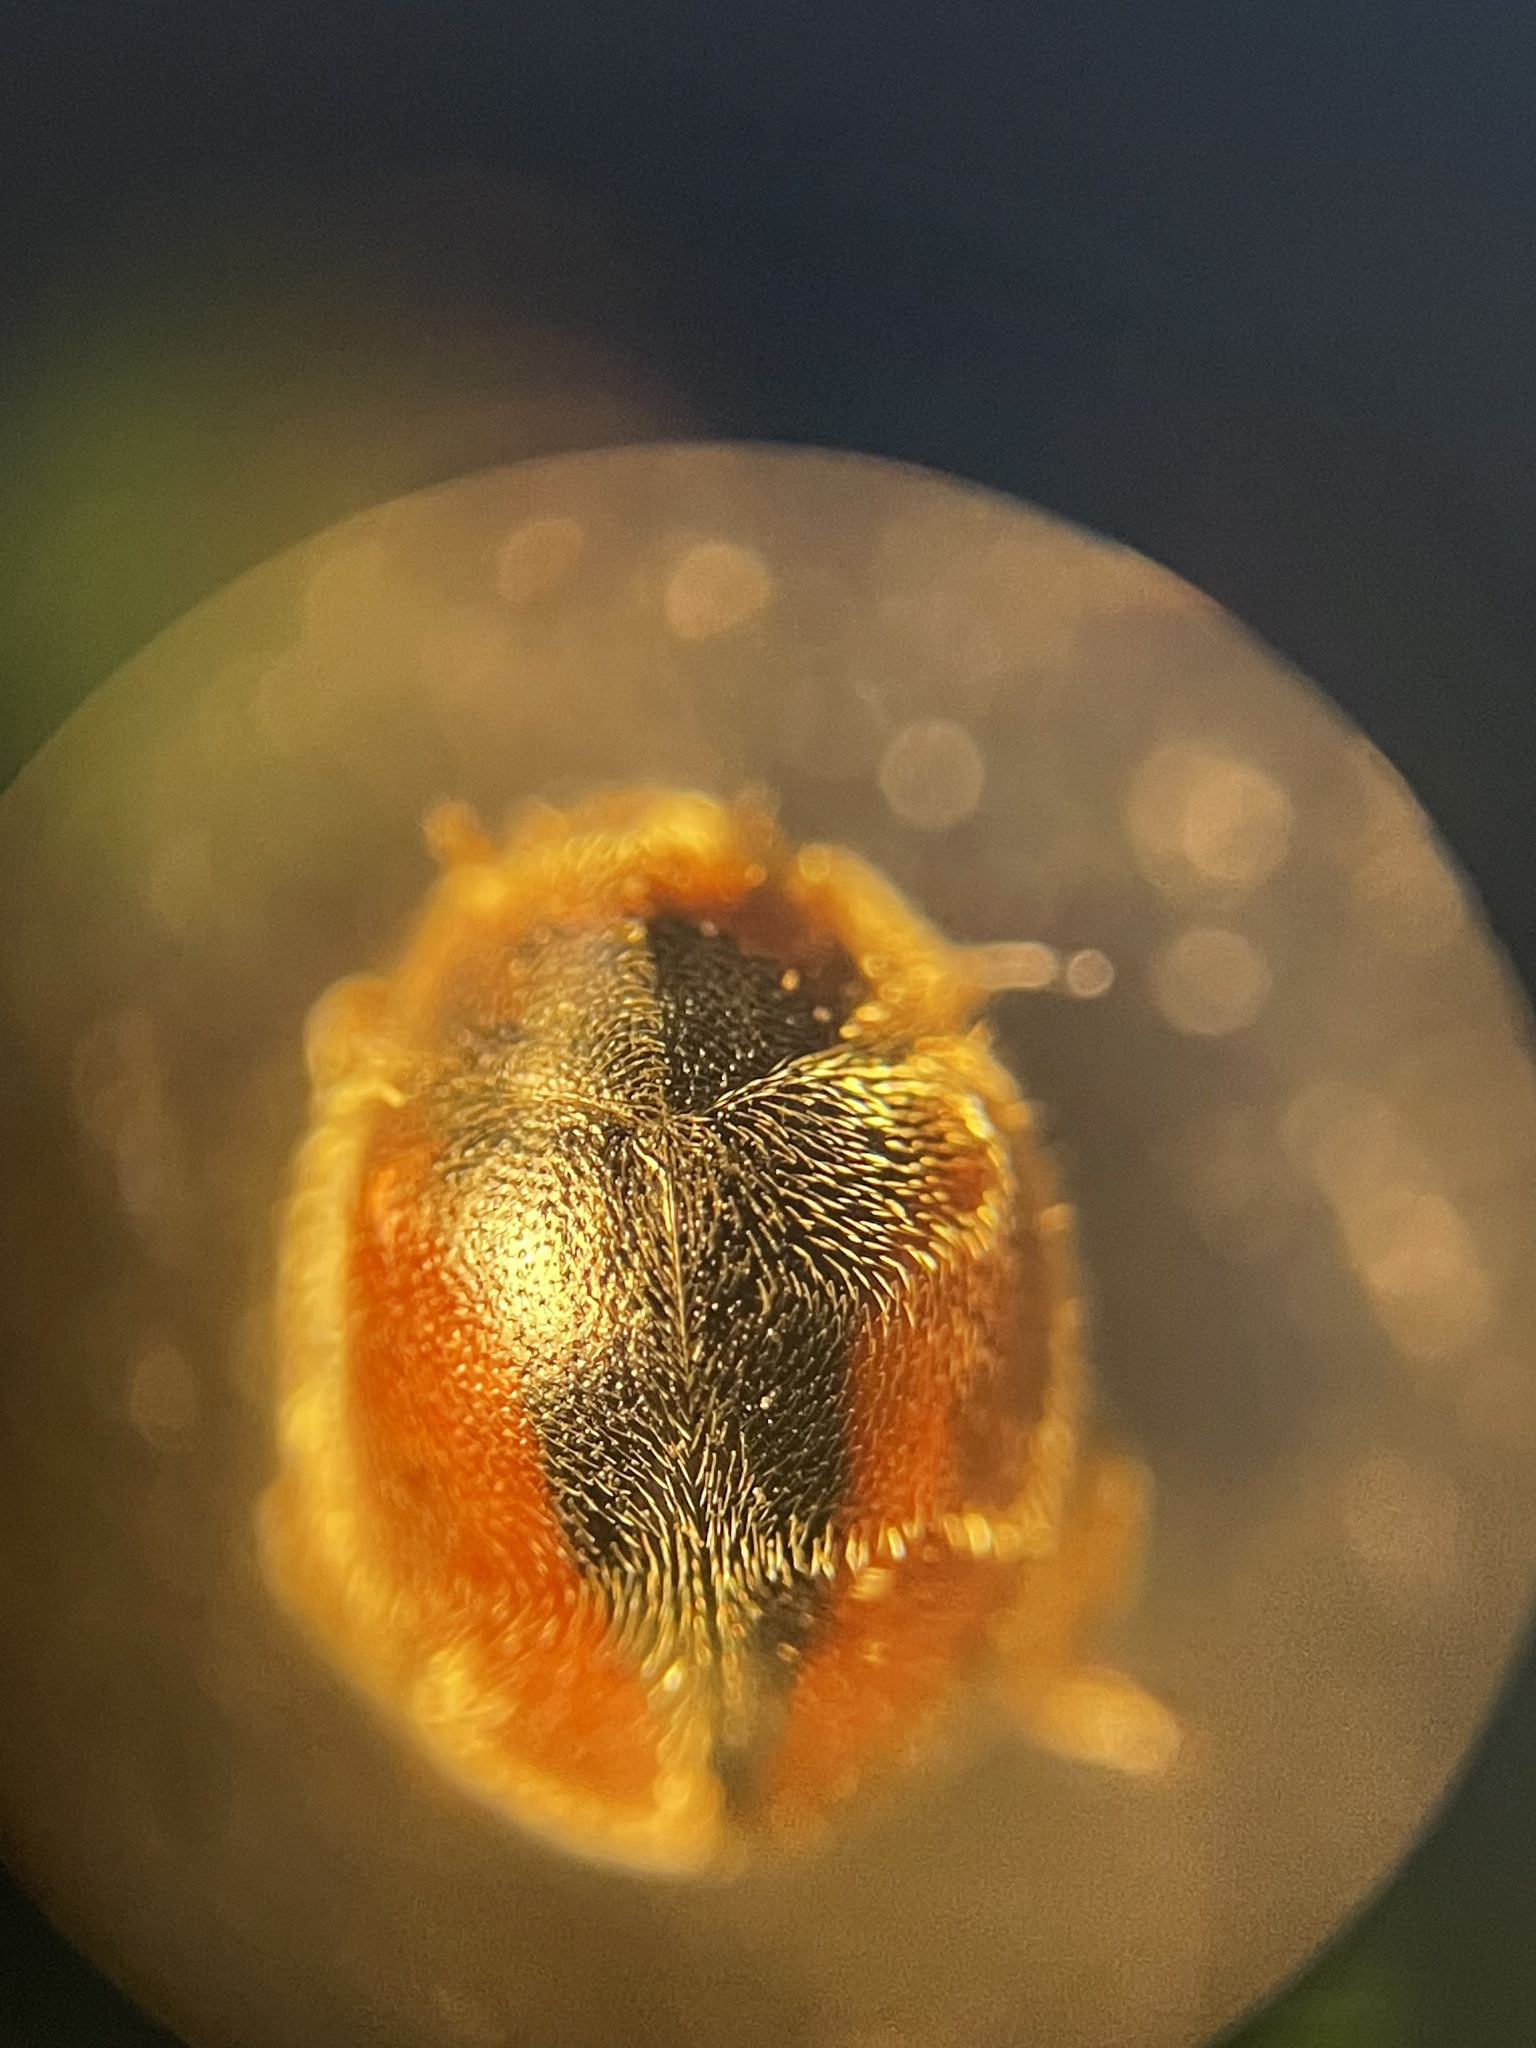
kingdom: Animalia
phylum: Arthropoda
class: Insecta
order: Coleoptera
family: Coccinellidae
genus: Scymnus
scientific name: Scymnus loewii
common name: Dusky lady beetle
